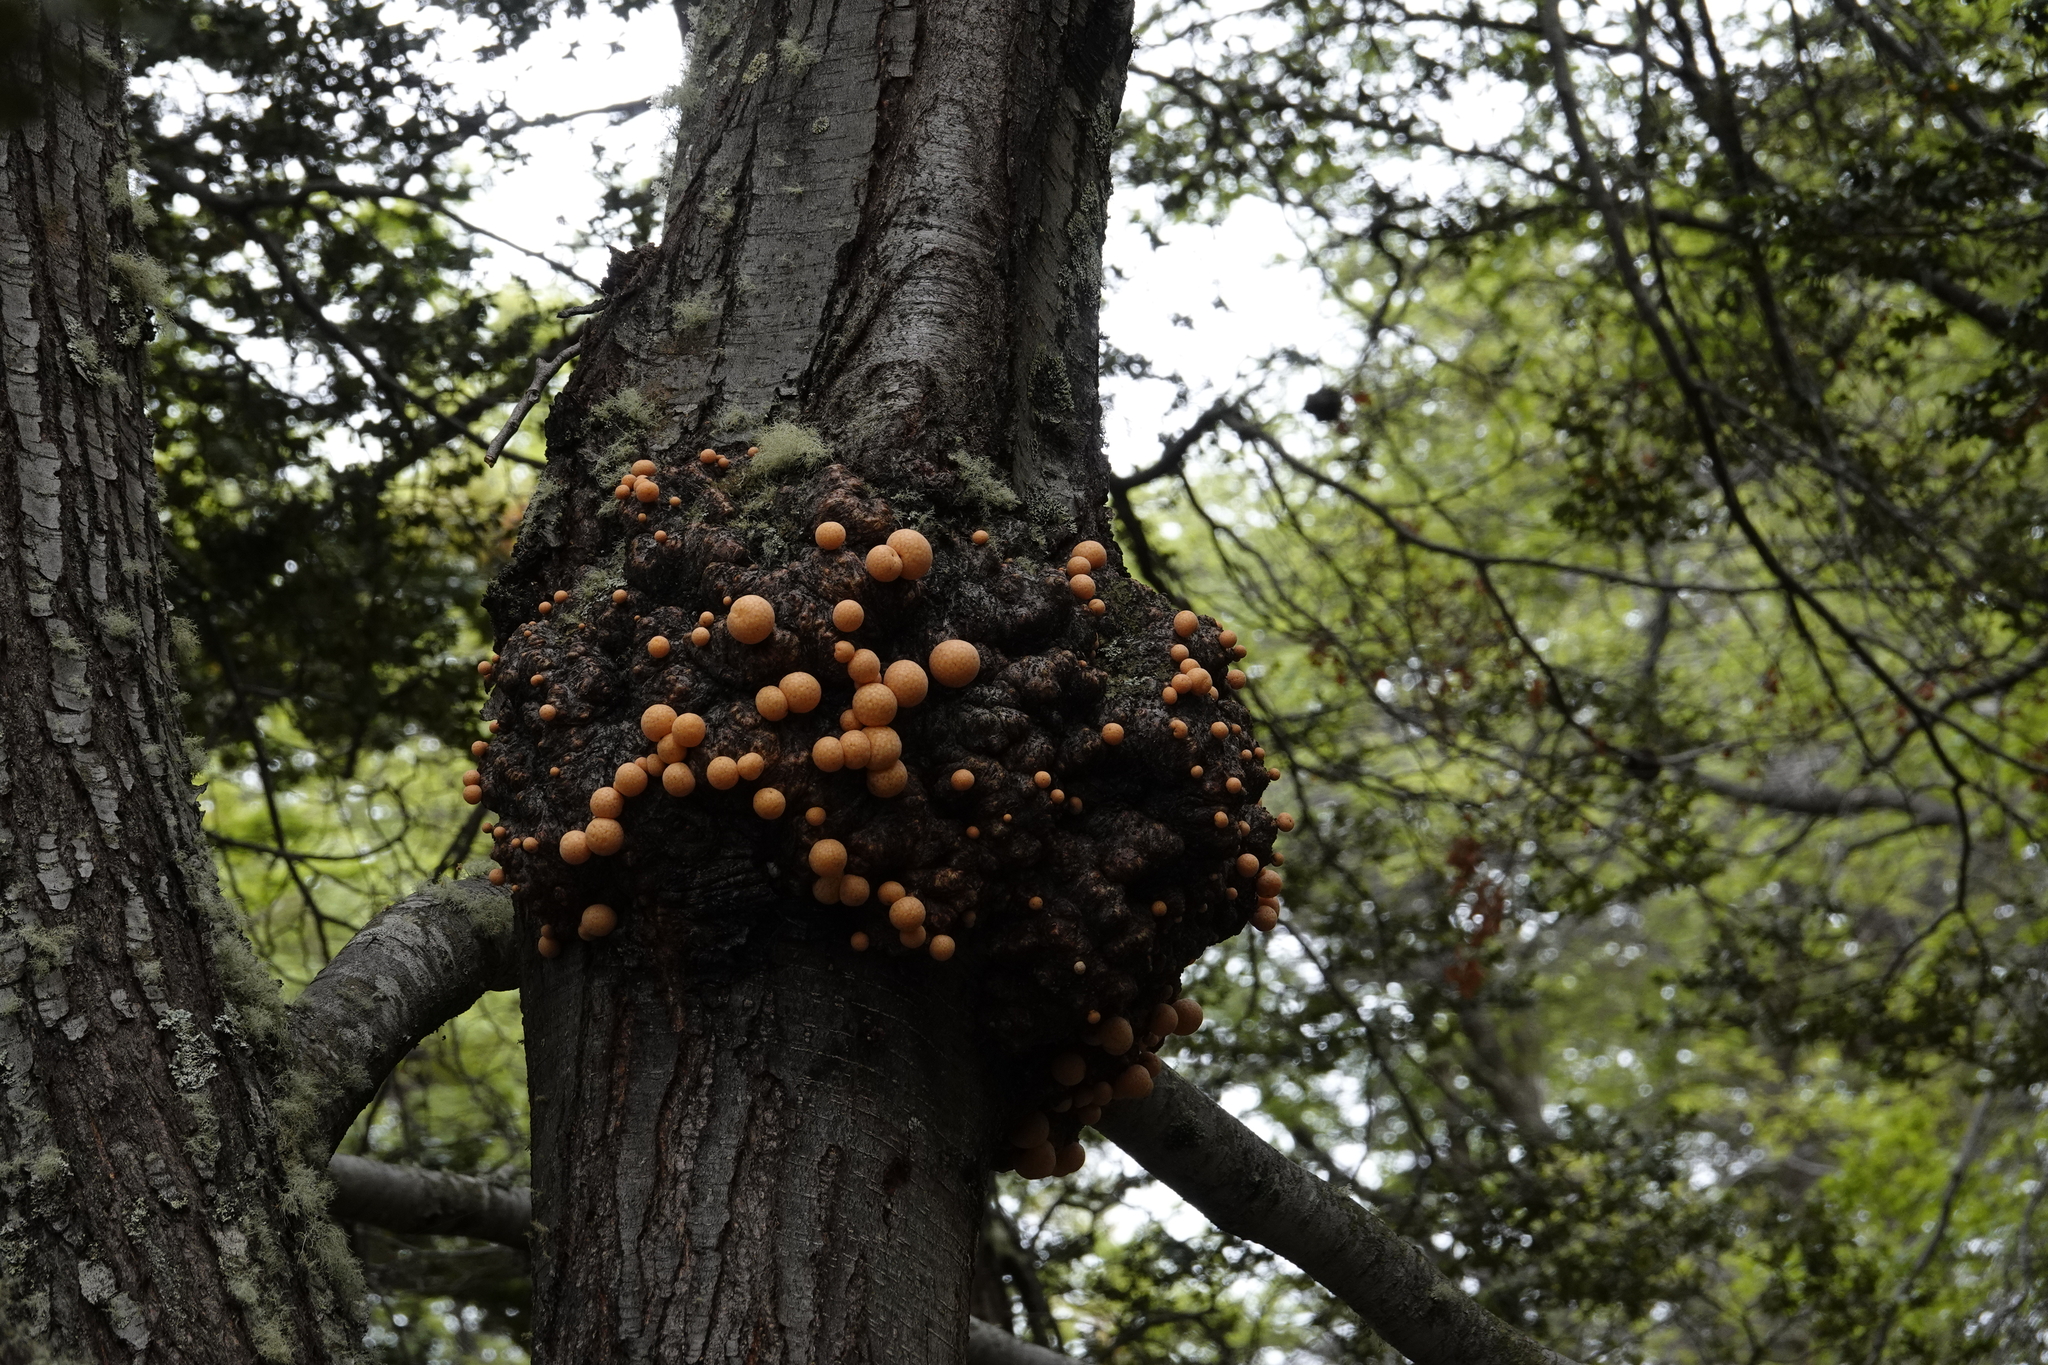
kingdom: Fungi
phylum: Ascomycota
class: Leotiomycetes
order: Cyttariales
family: Cyttariaceae
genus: Cyttaria
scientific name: Cyttaria hariotii
